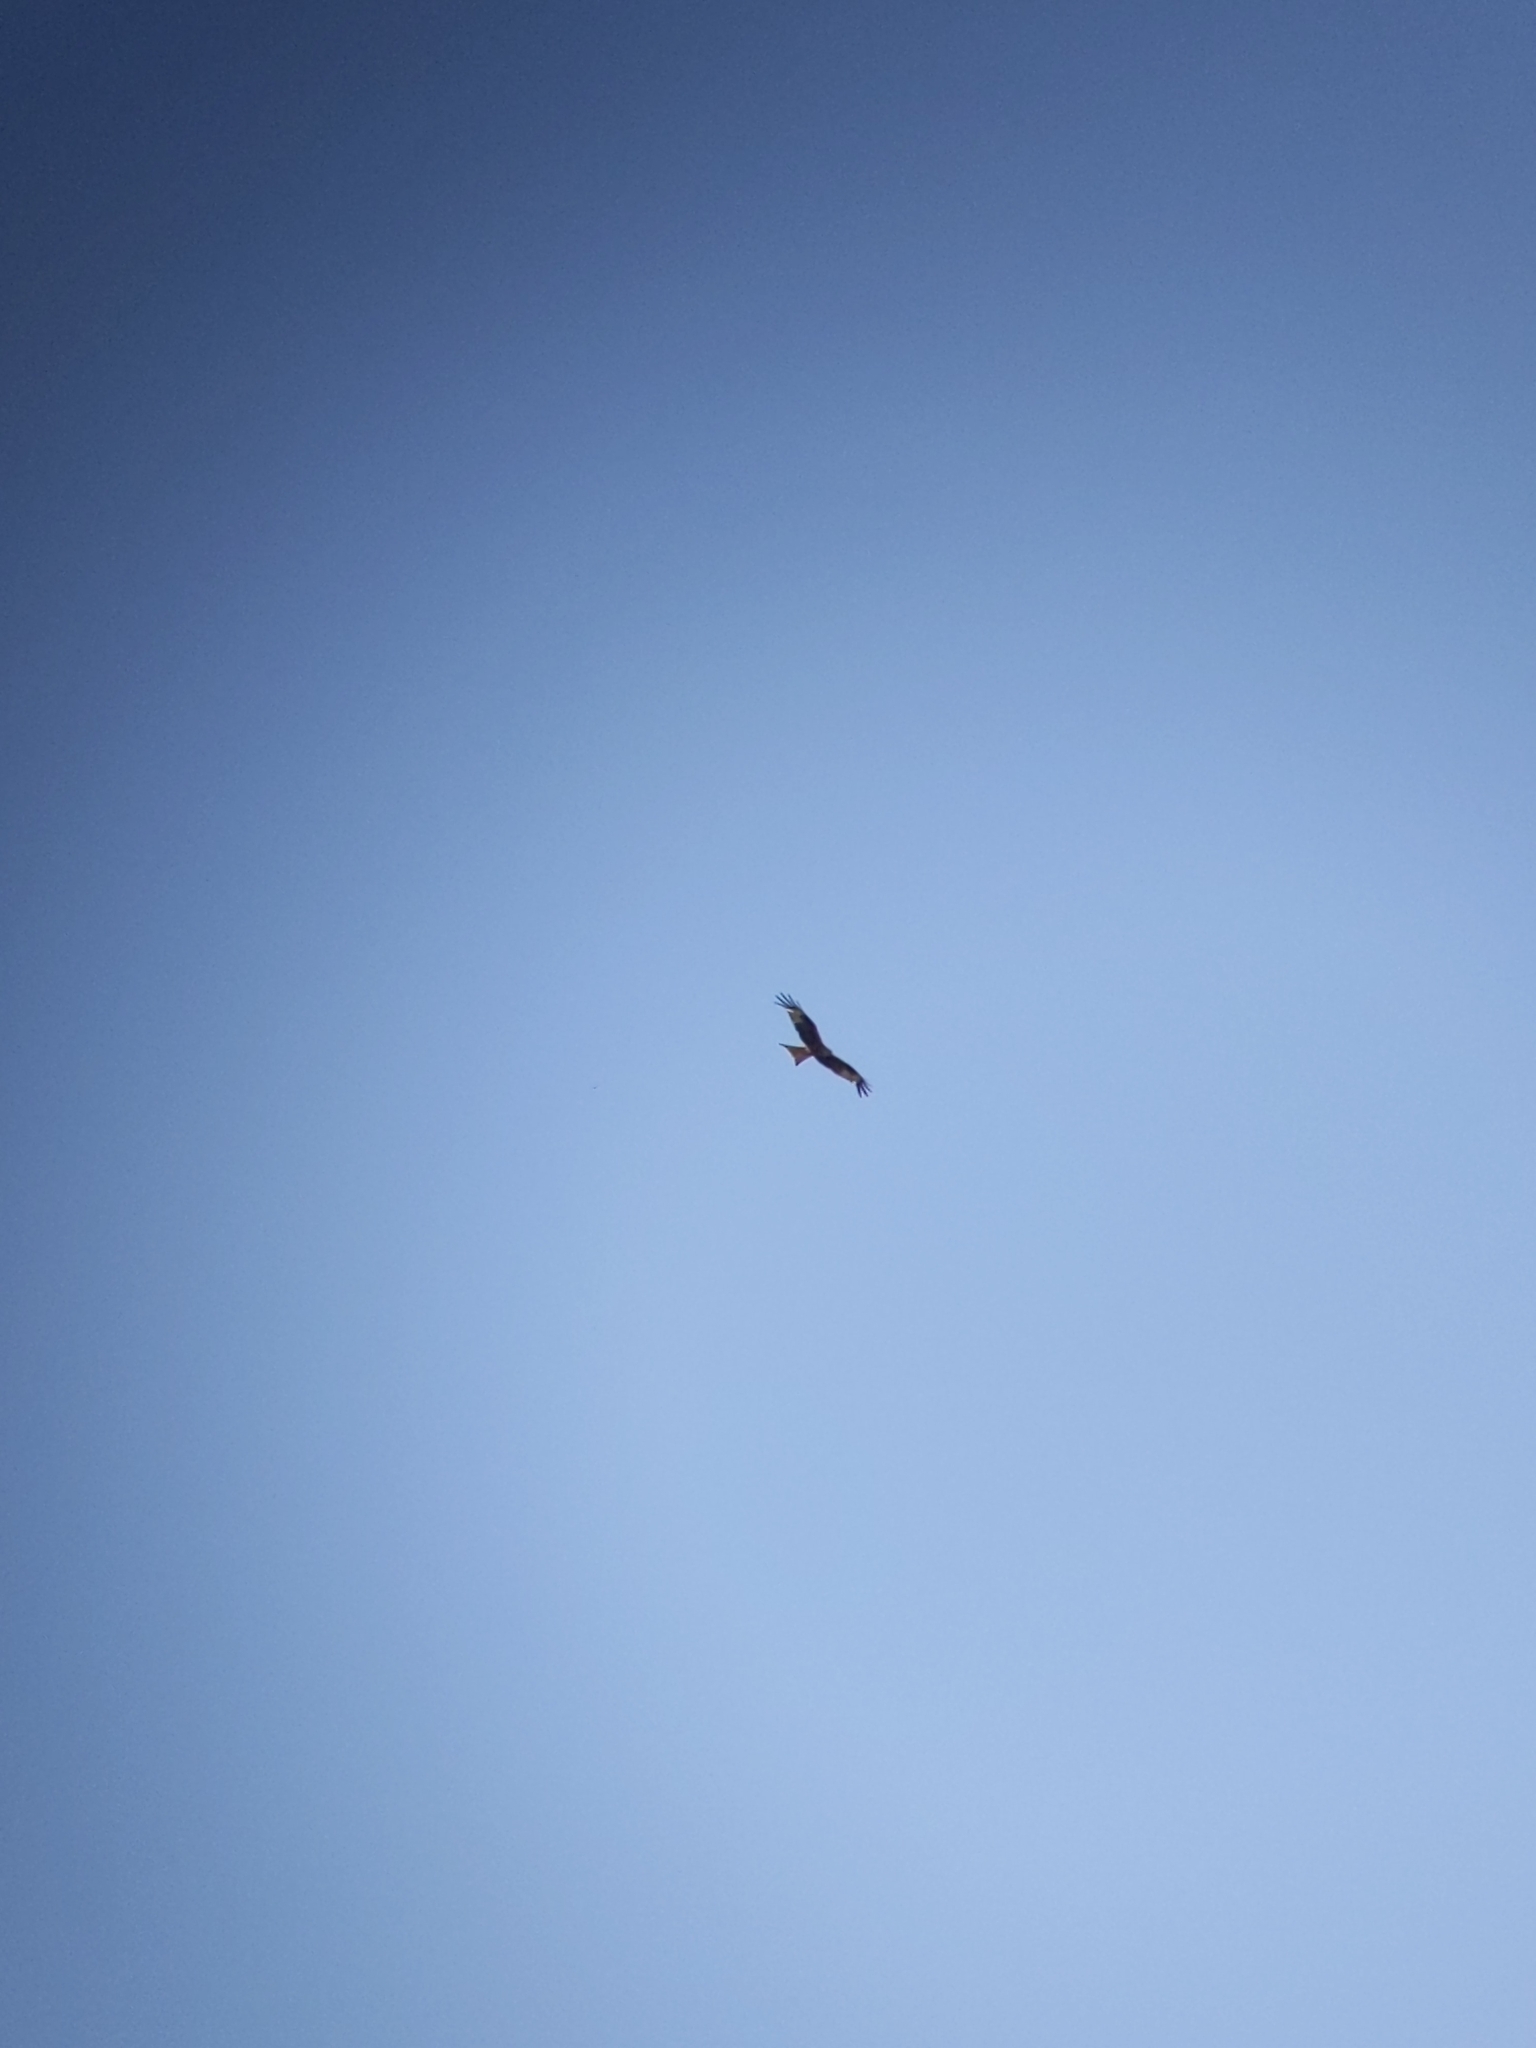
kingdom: Animalia
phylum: Chordata
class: Aves
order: Accipitriformes
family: Accipitridae
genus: Milvus
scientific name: Milvus milvus
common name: Red kite
